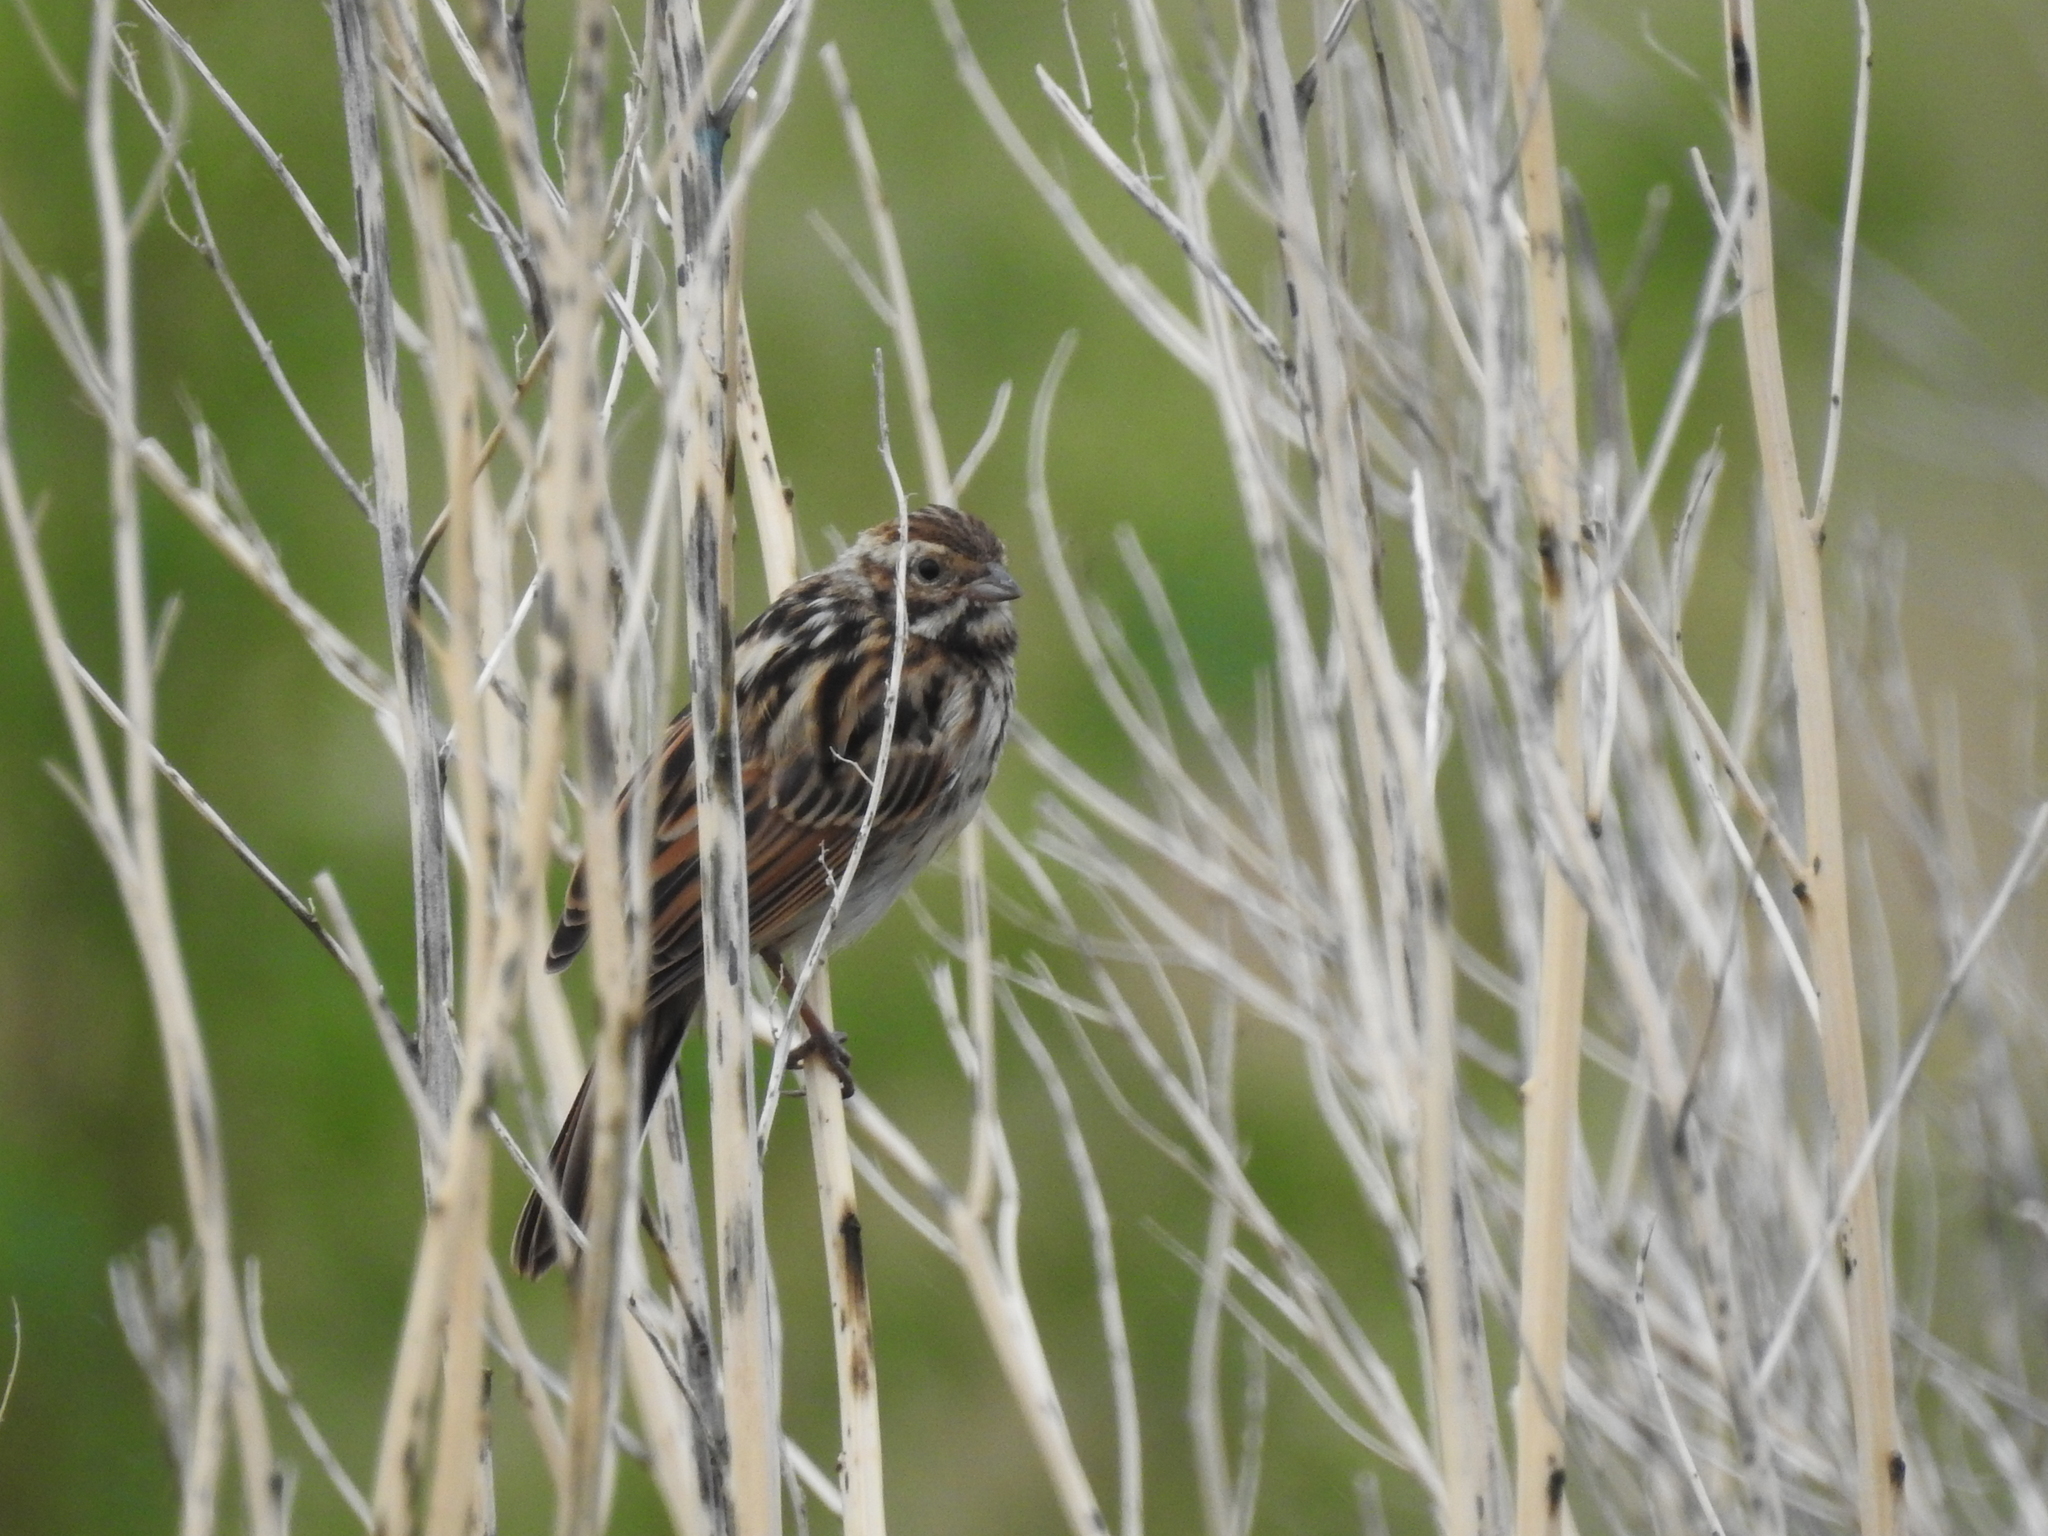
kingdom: Animalia
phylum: Chordata
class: Aves
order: Passeriformes
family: Emberizidae
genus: Emberiza
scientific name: Emberiza schoeniclus
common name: Reed bunting
